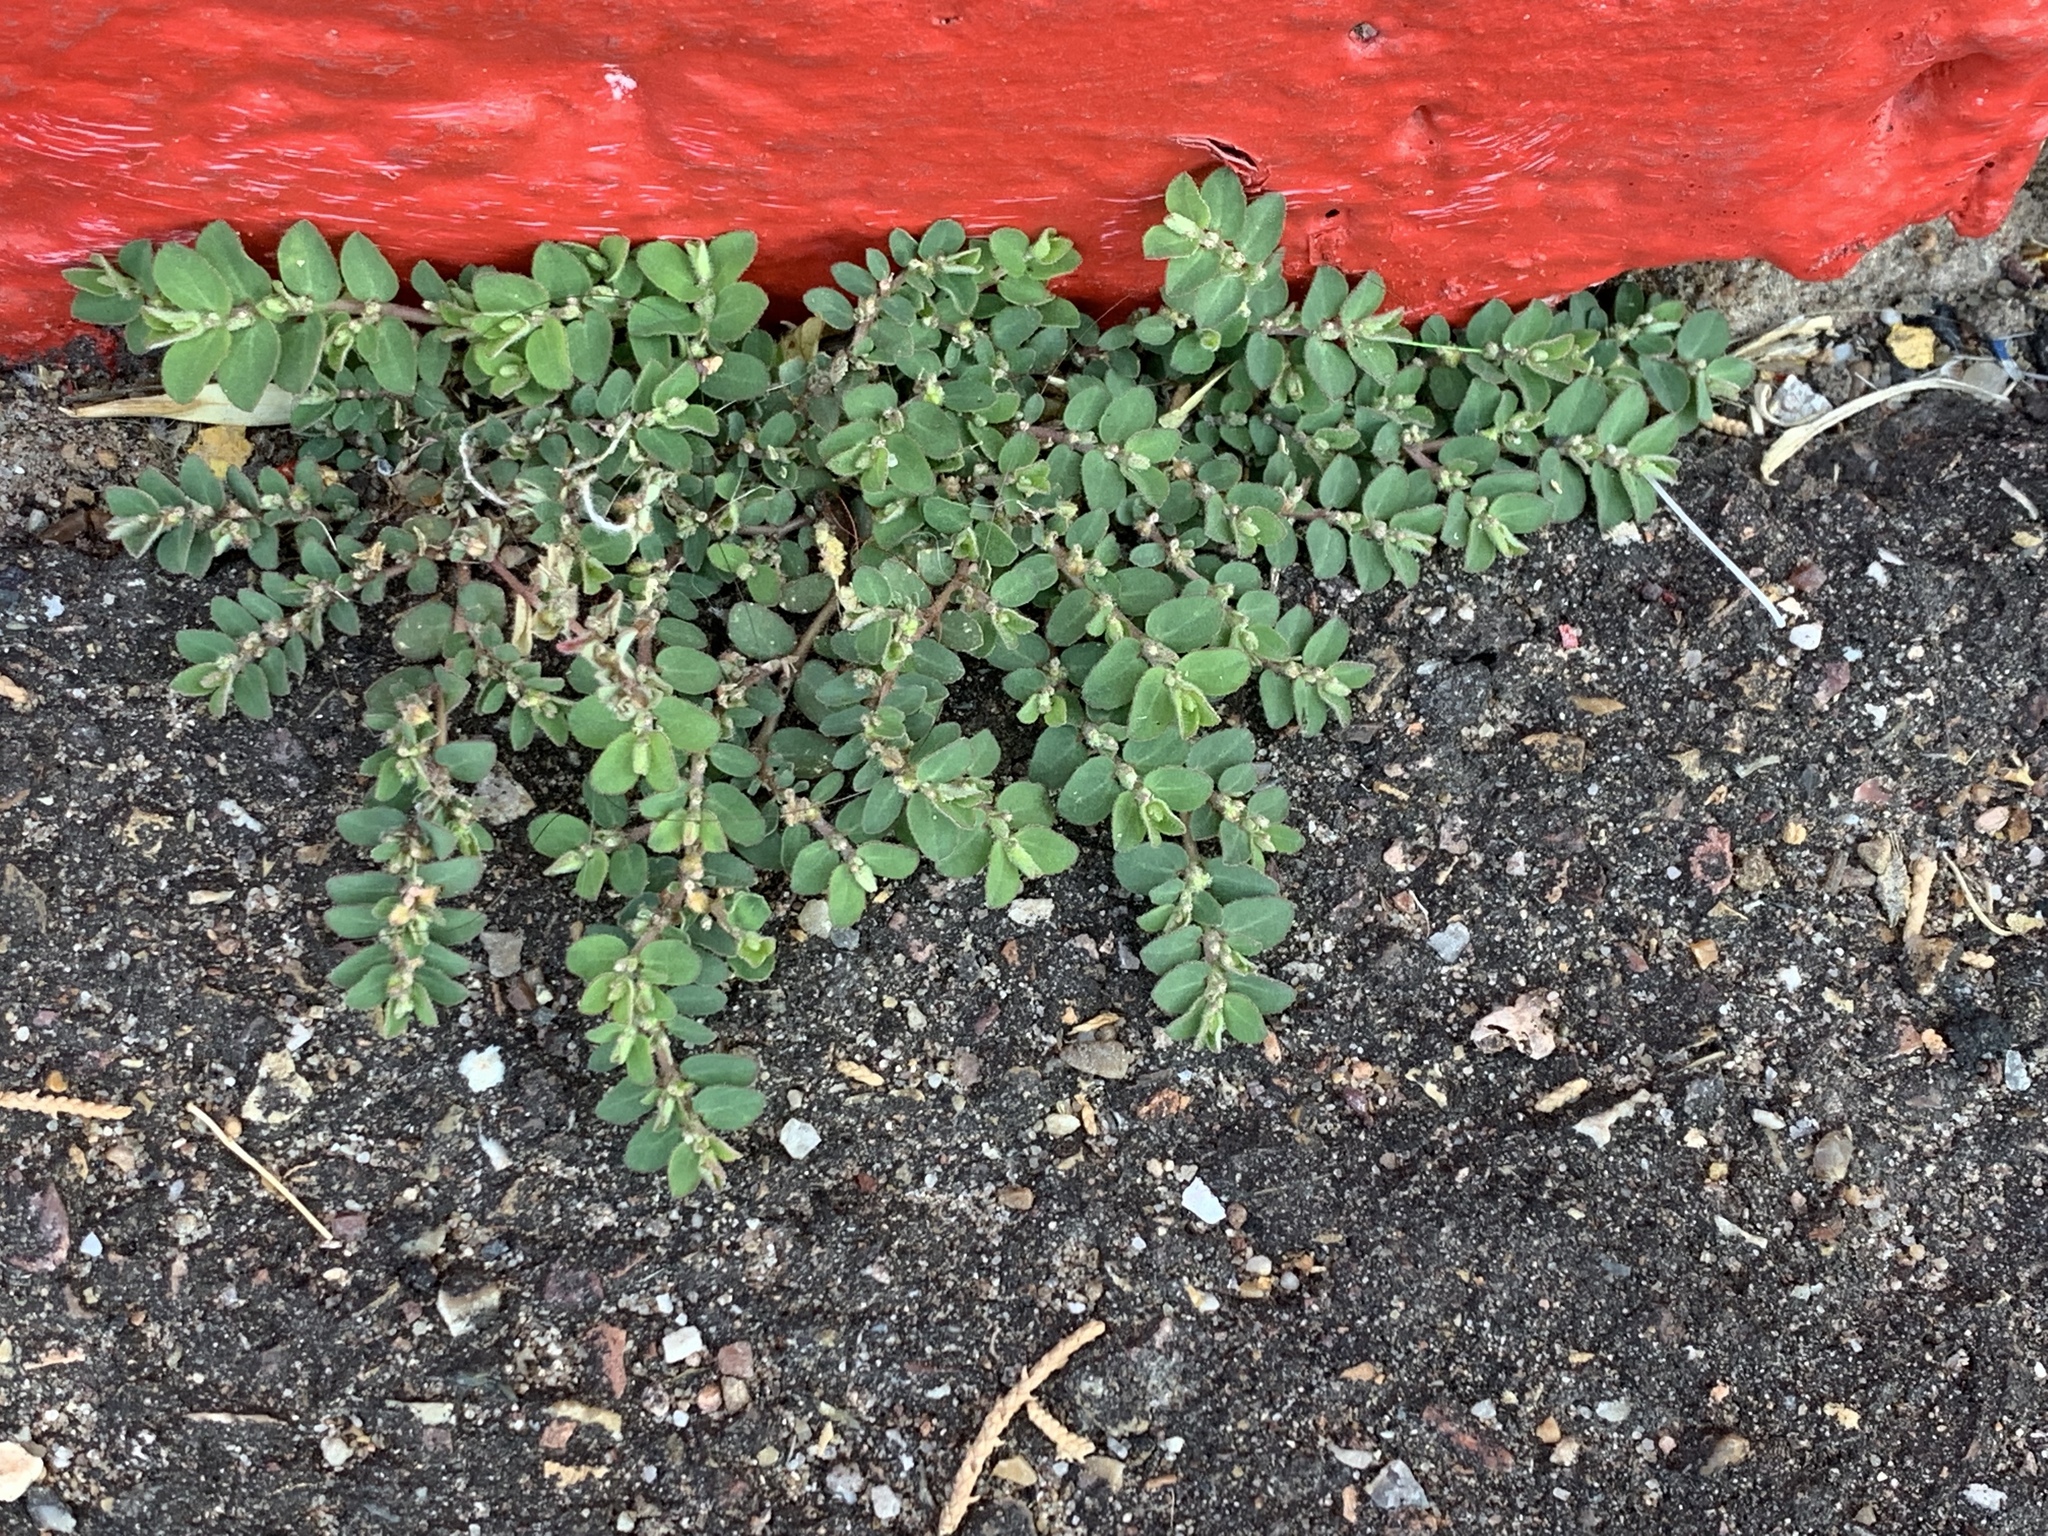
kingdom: Plantae
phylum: Tracheophyta
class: Magnoliopsida
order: Malpighiales
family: Euphorbiaceae
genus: Euphorbia
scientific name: Euphorbia prostrata
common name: Prostrate sandmat
